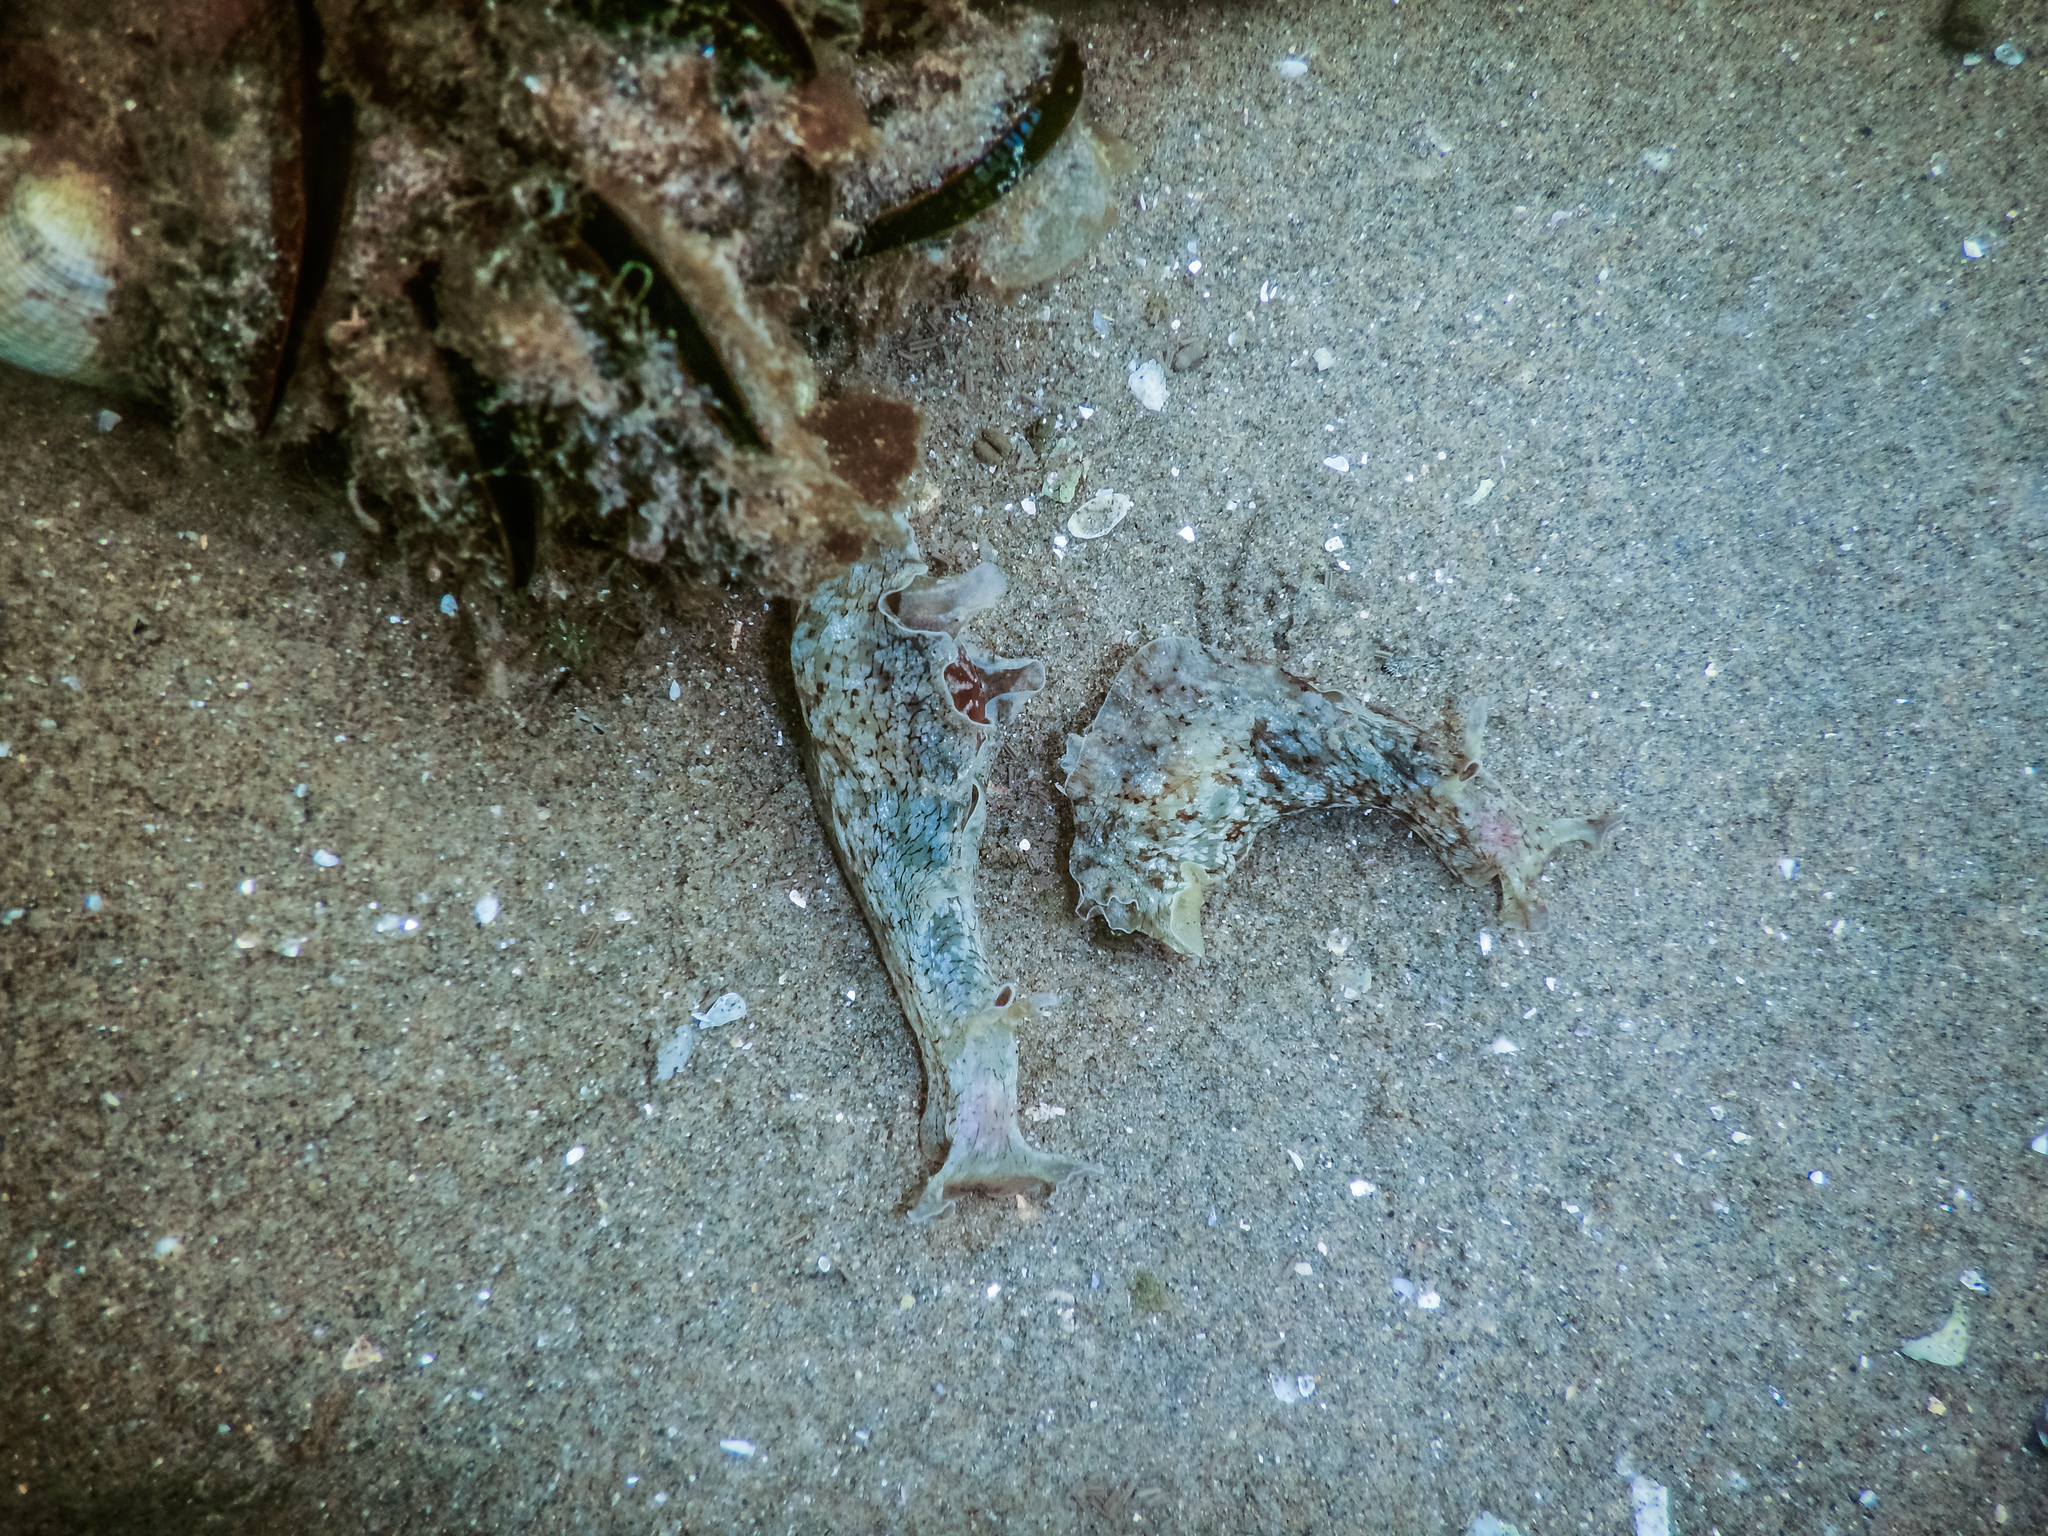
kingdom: Animalia
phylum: Mollusca
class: Gastropoda
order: Aplysiida
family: Aplysiidae
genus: Aplysia
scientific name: Aplysia keraudreni
